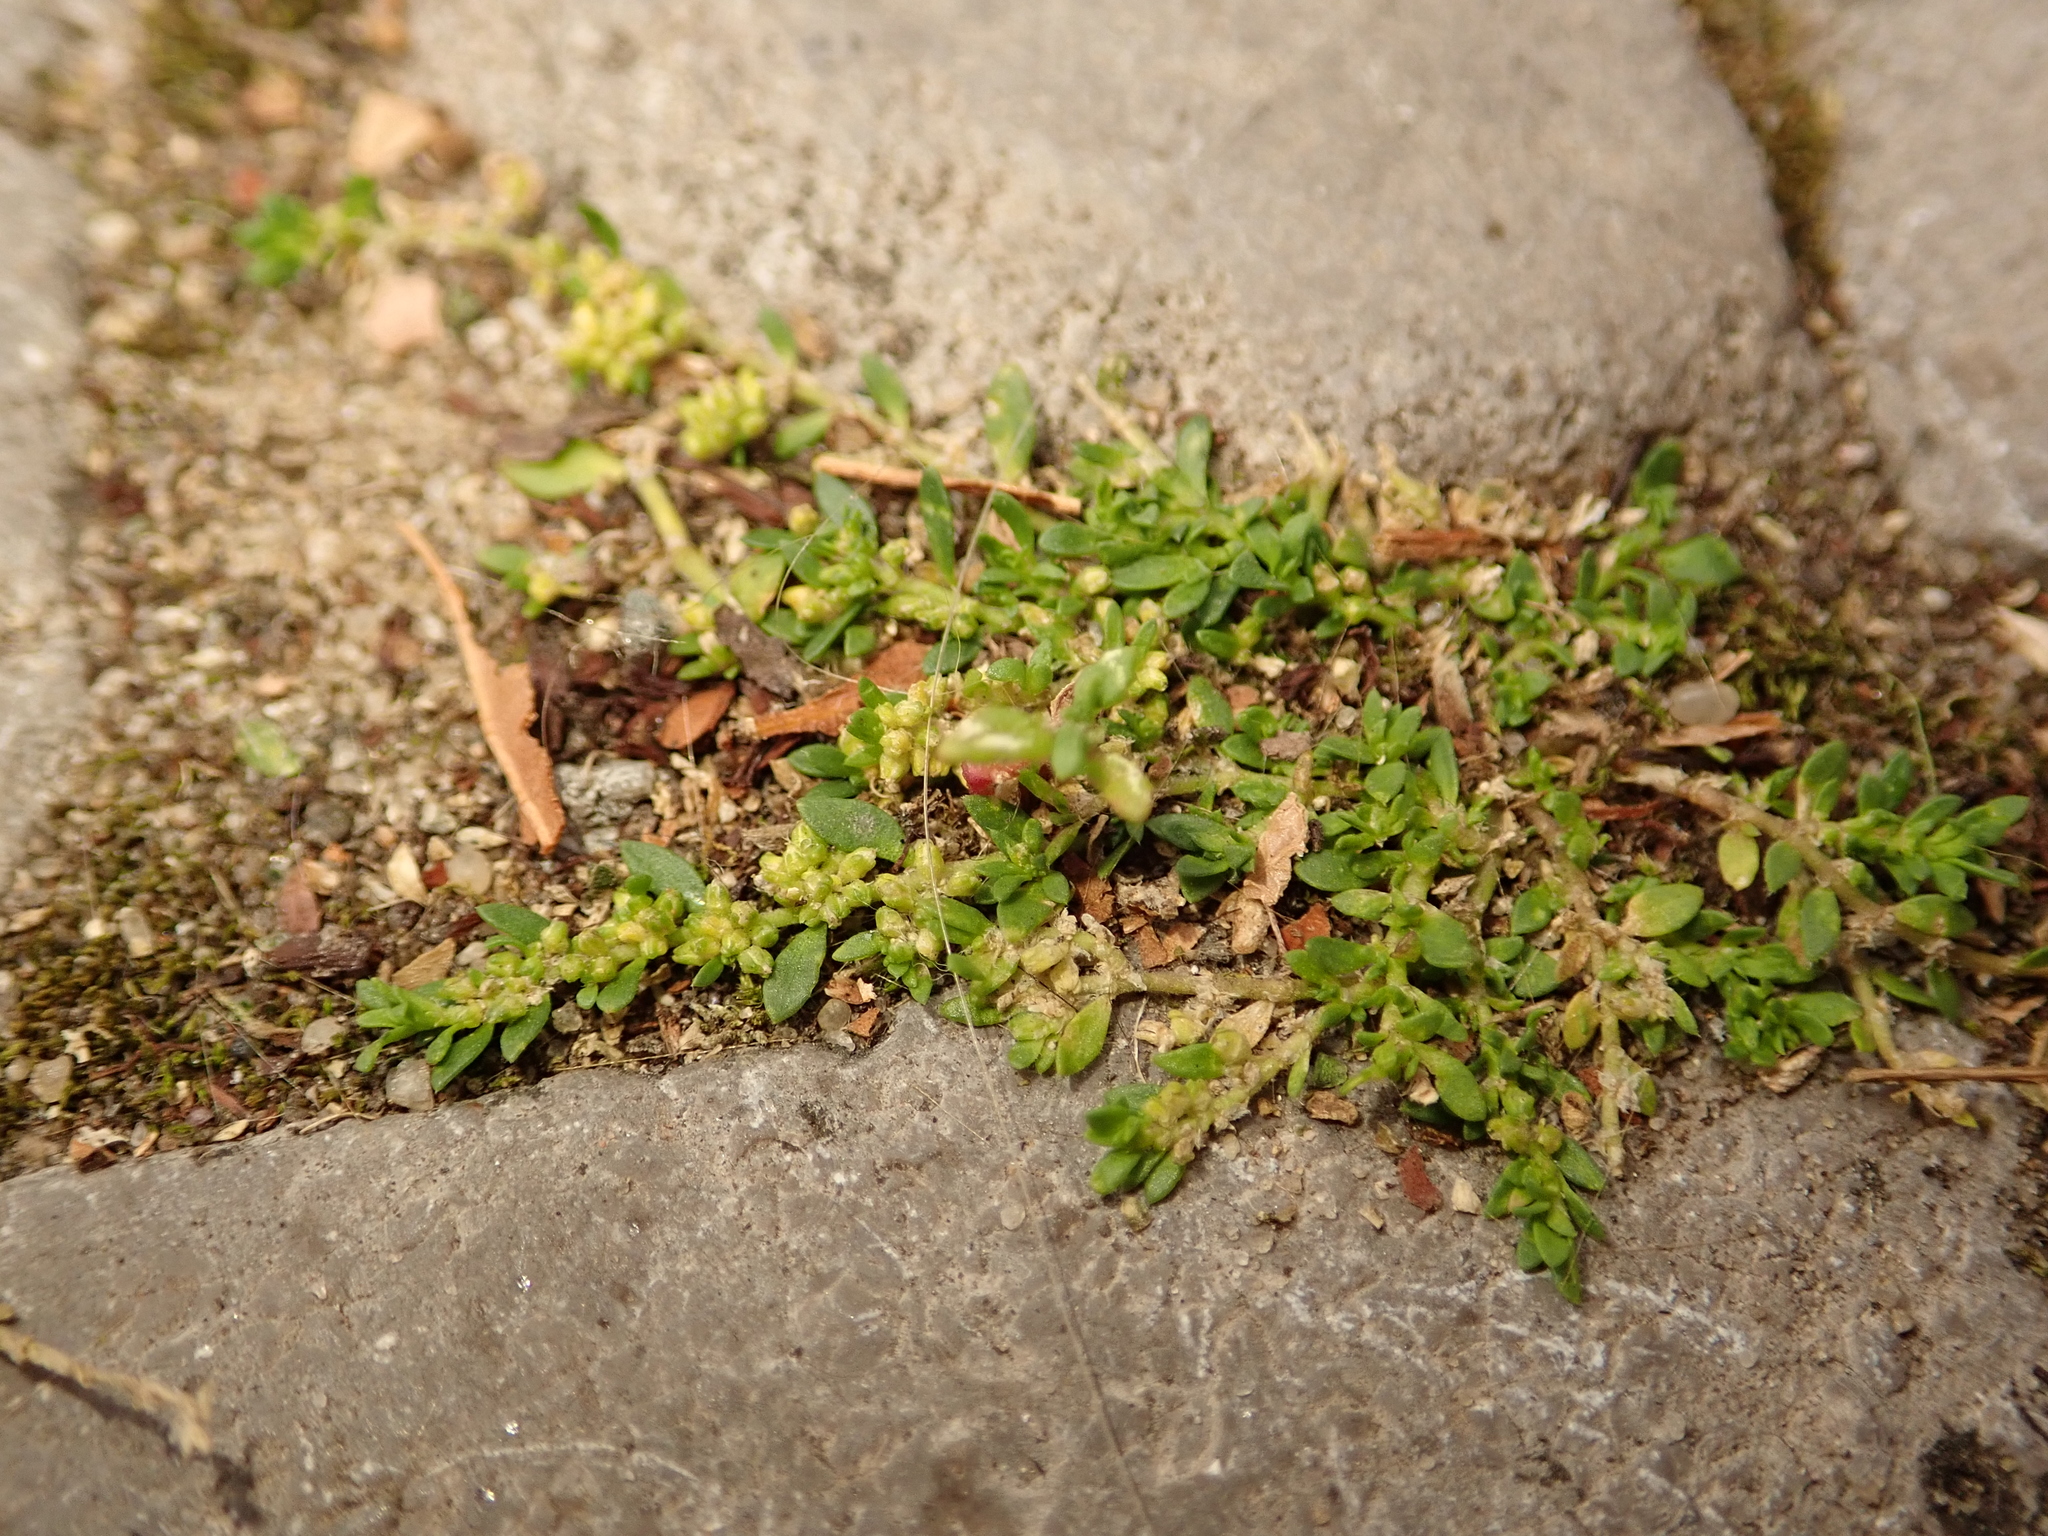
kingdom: Plantae
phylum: Tracheophyta
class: Magnoliopsida
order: Caryophyllales
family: Caryophyllaceae
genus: Herniaria
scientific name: Herniaria glabra
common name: Smooth rupturewort
